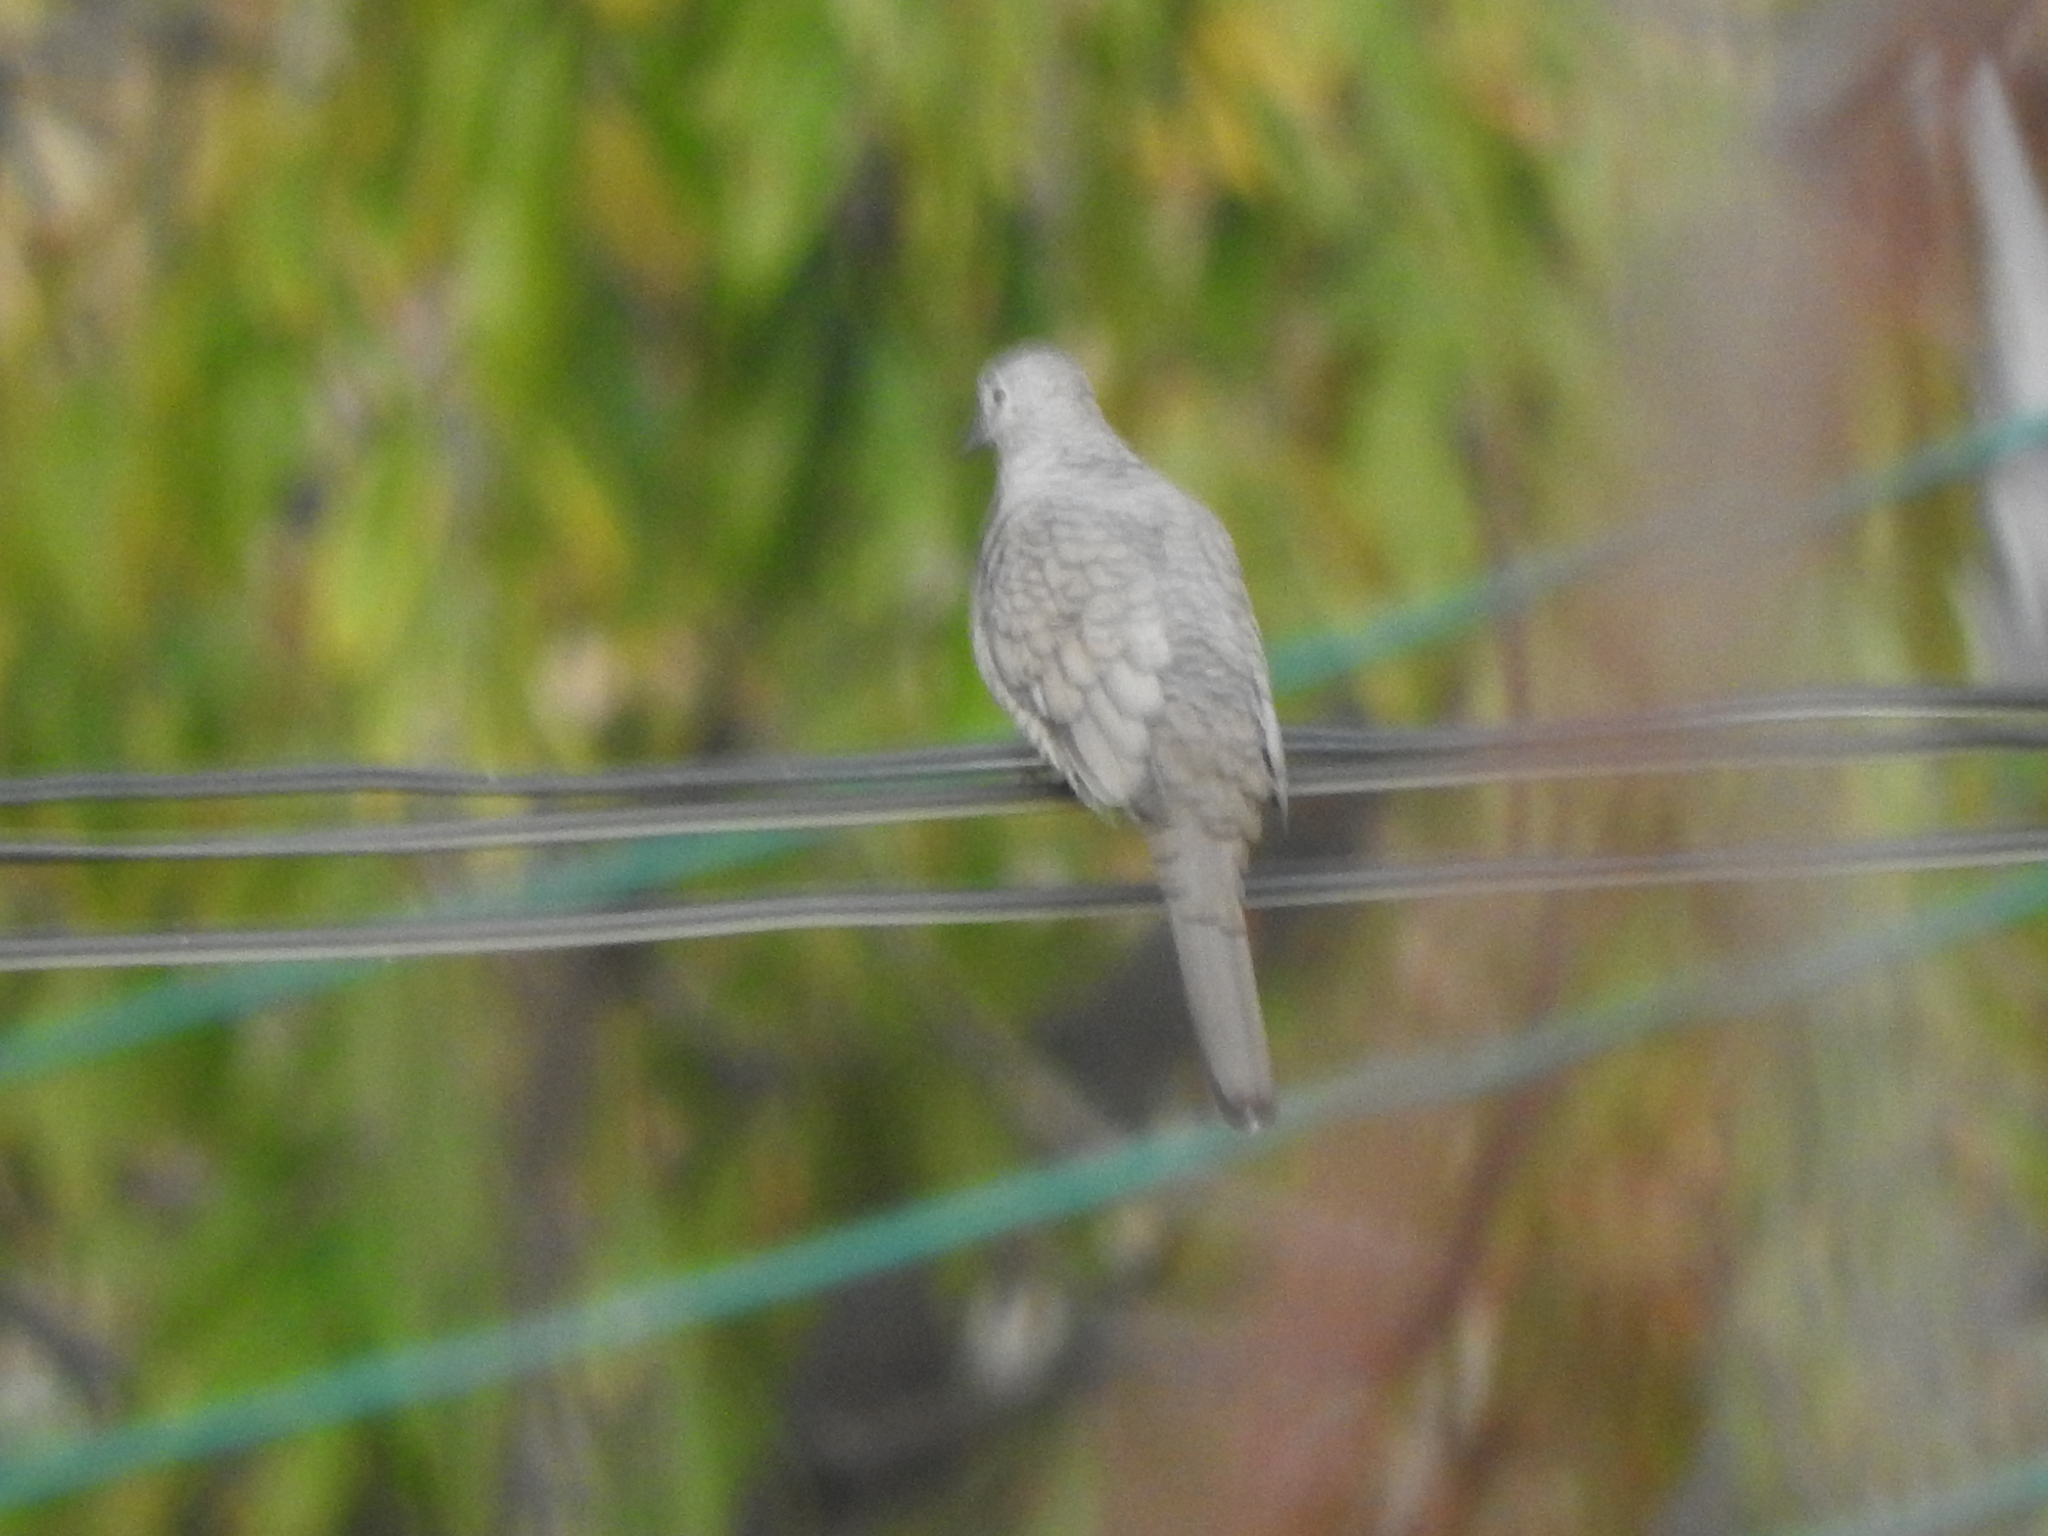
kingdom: Animalia
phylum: Chordata
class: Aves
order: Columbiformes
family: Columbidae
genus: Columbina
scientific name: Columbina inca
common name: Inca dove
